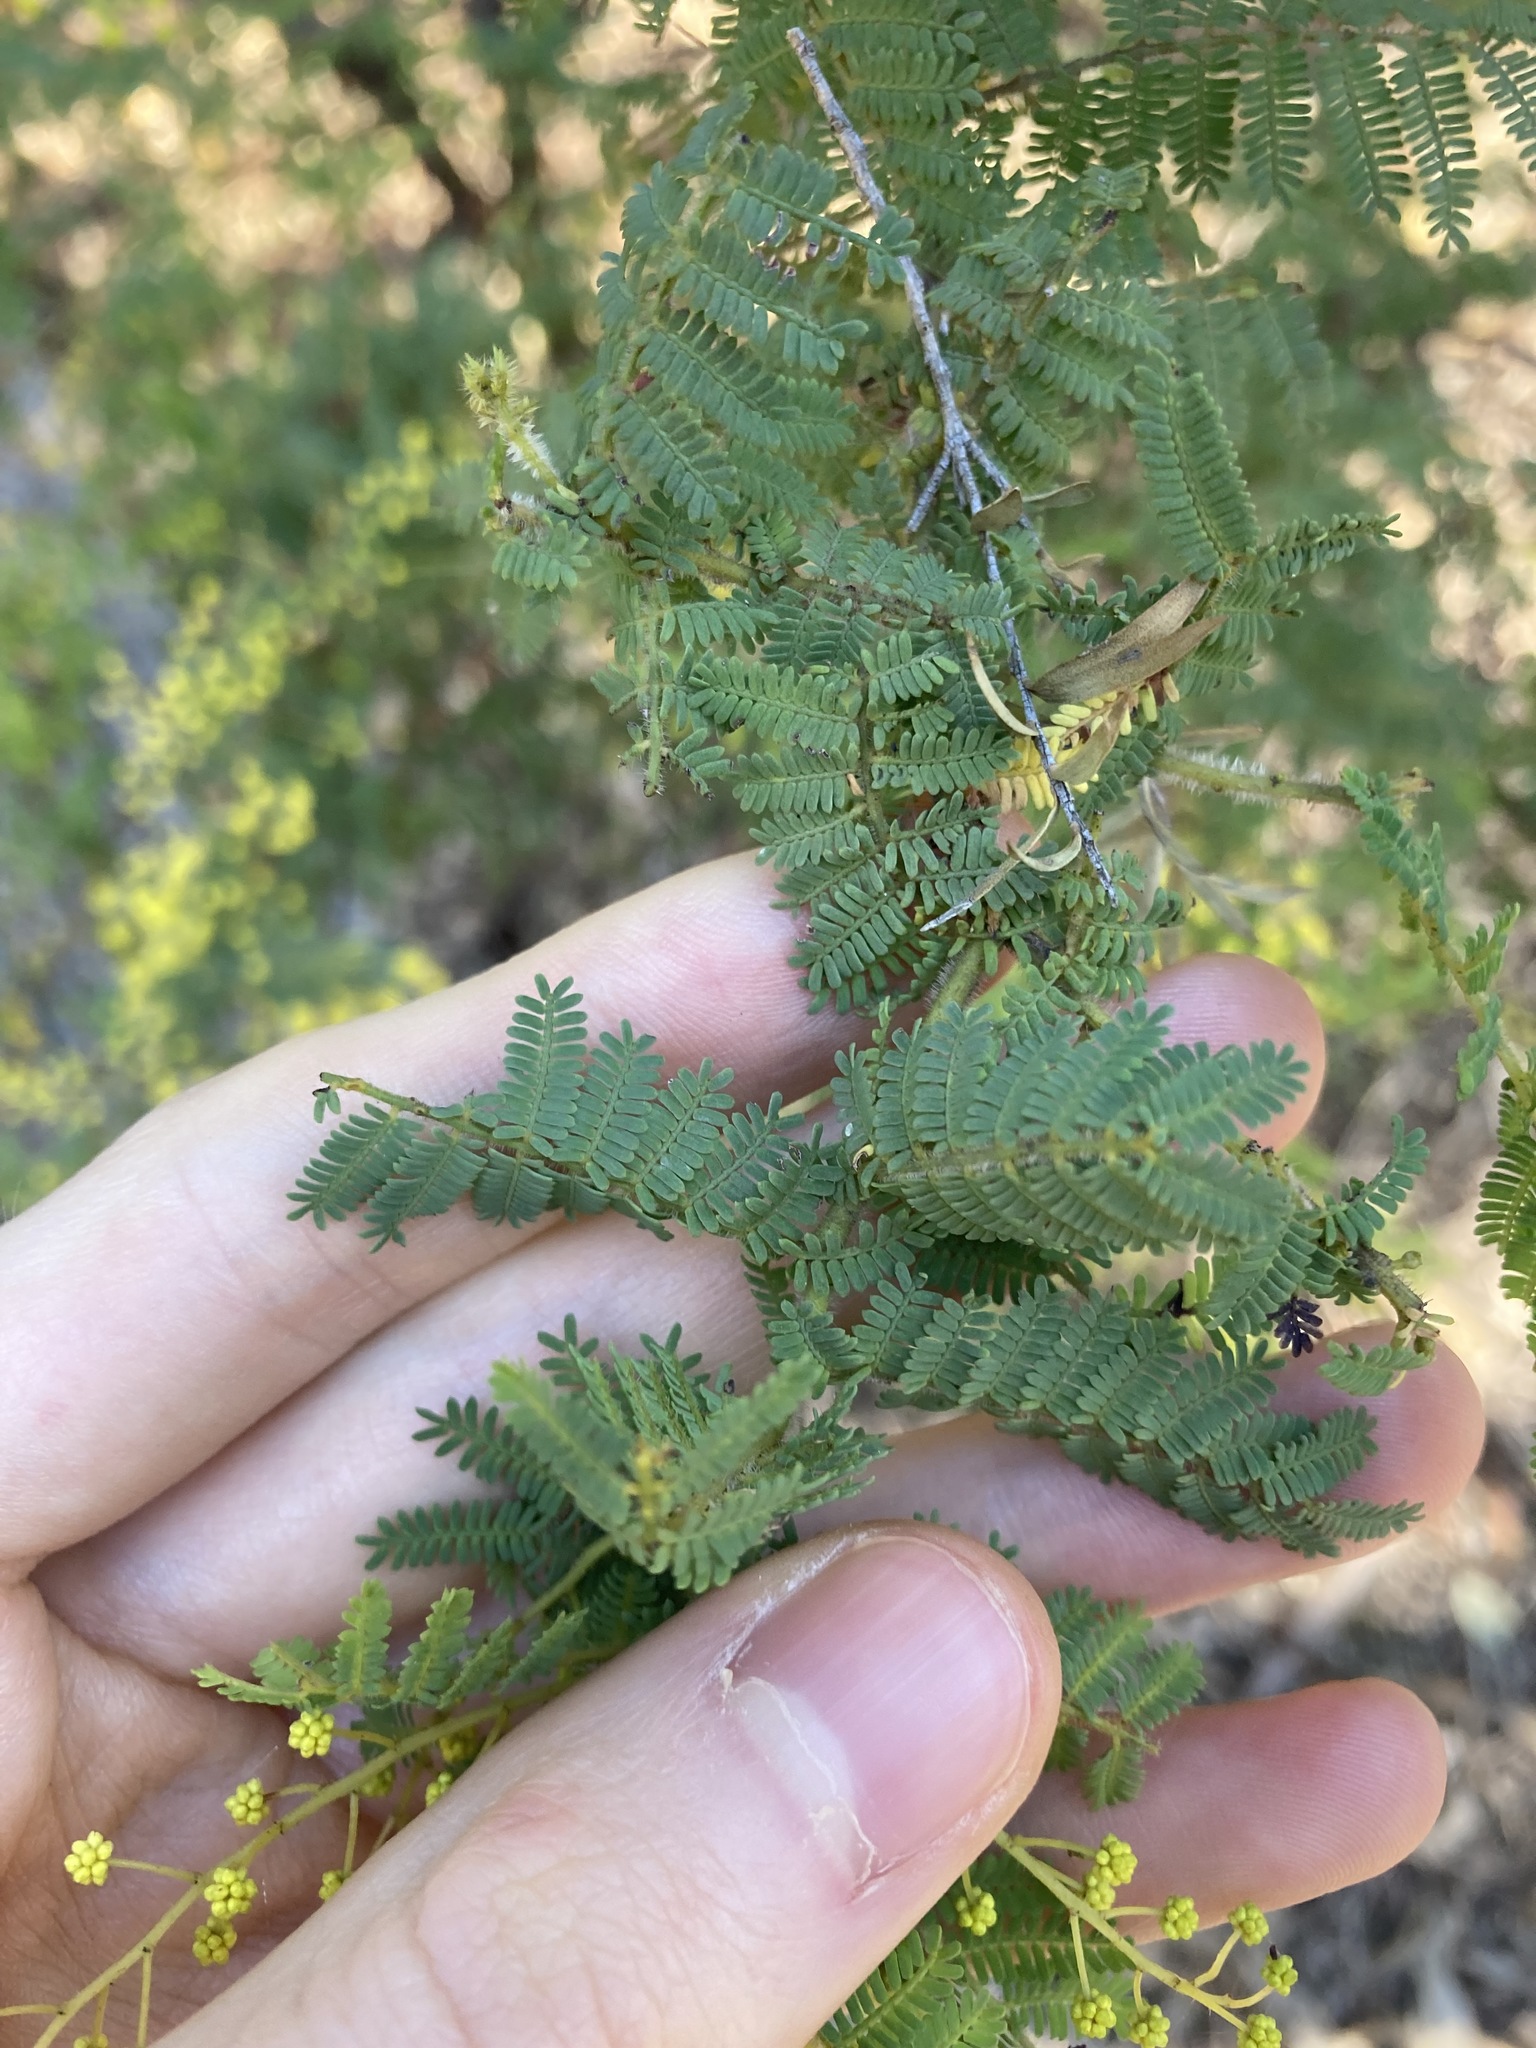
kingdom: Plantae
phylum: Tracheophyta
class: Magnoliopsida
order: Fabales
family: Fabaceae
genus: Acacia
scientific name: Acacia pubescens
